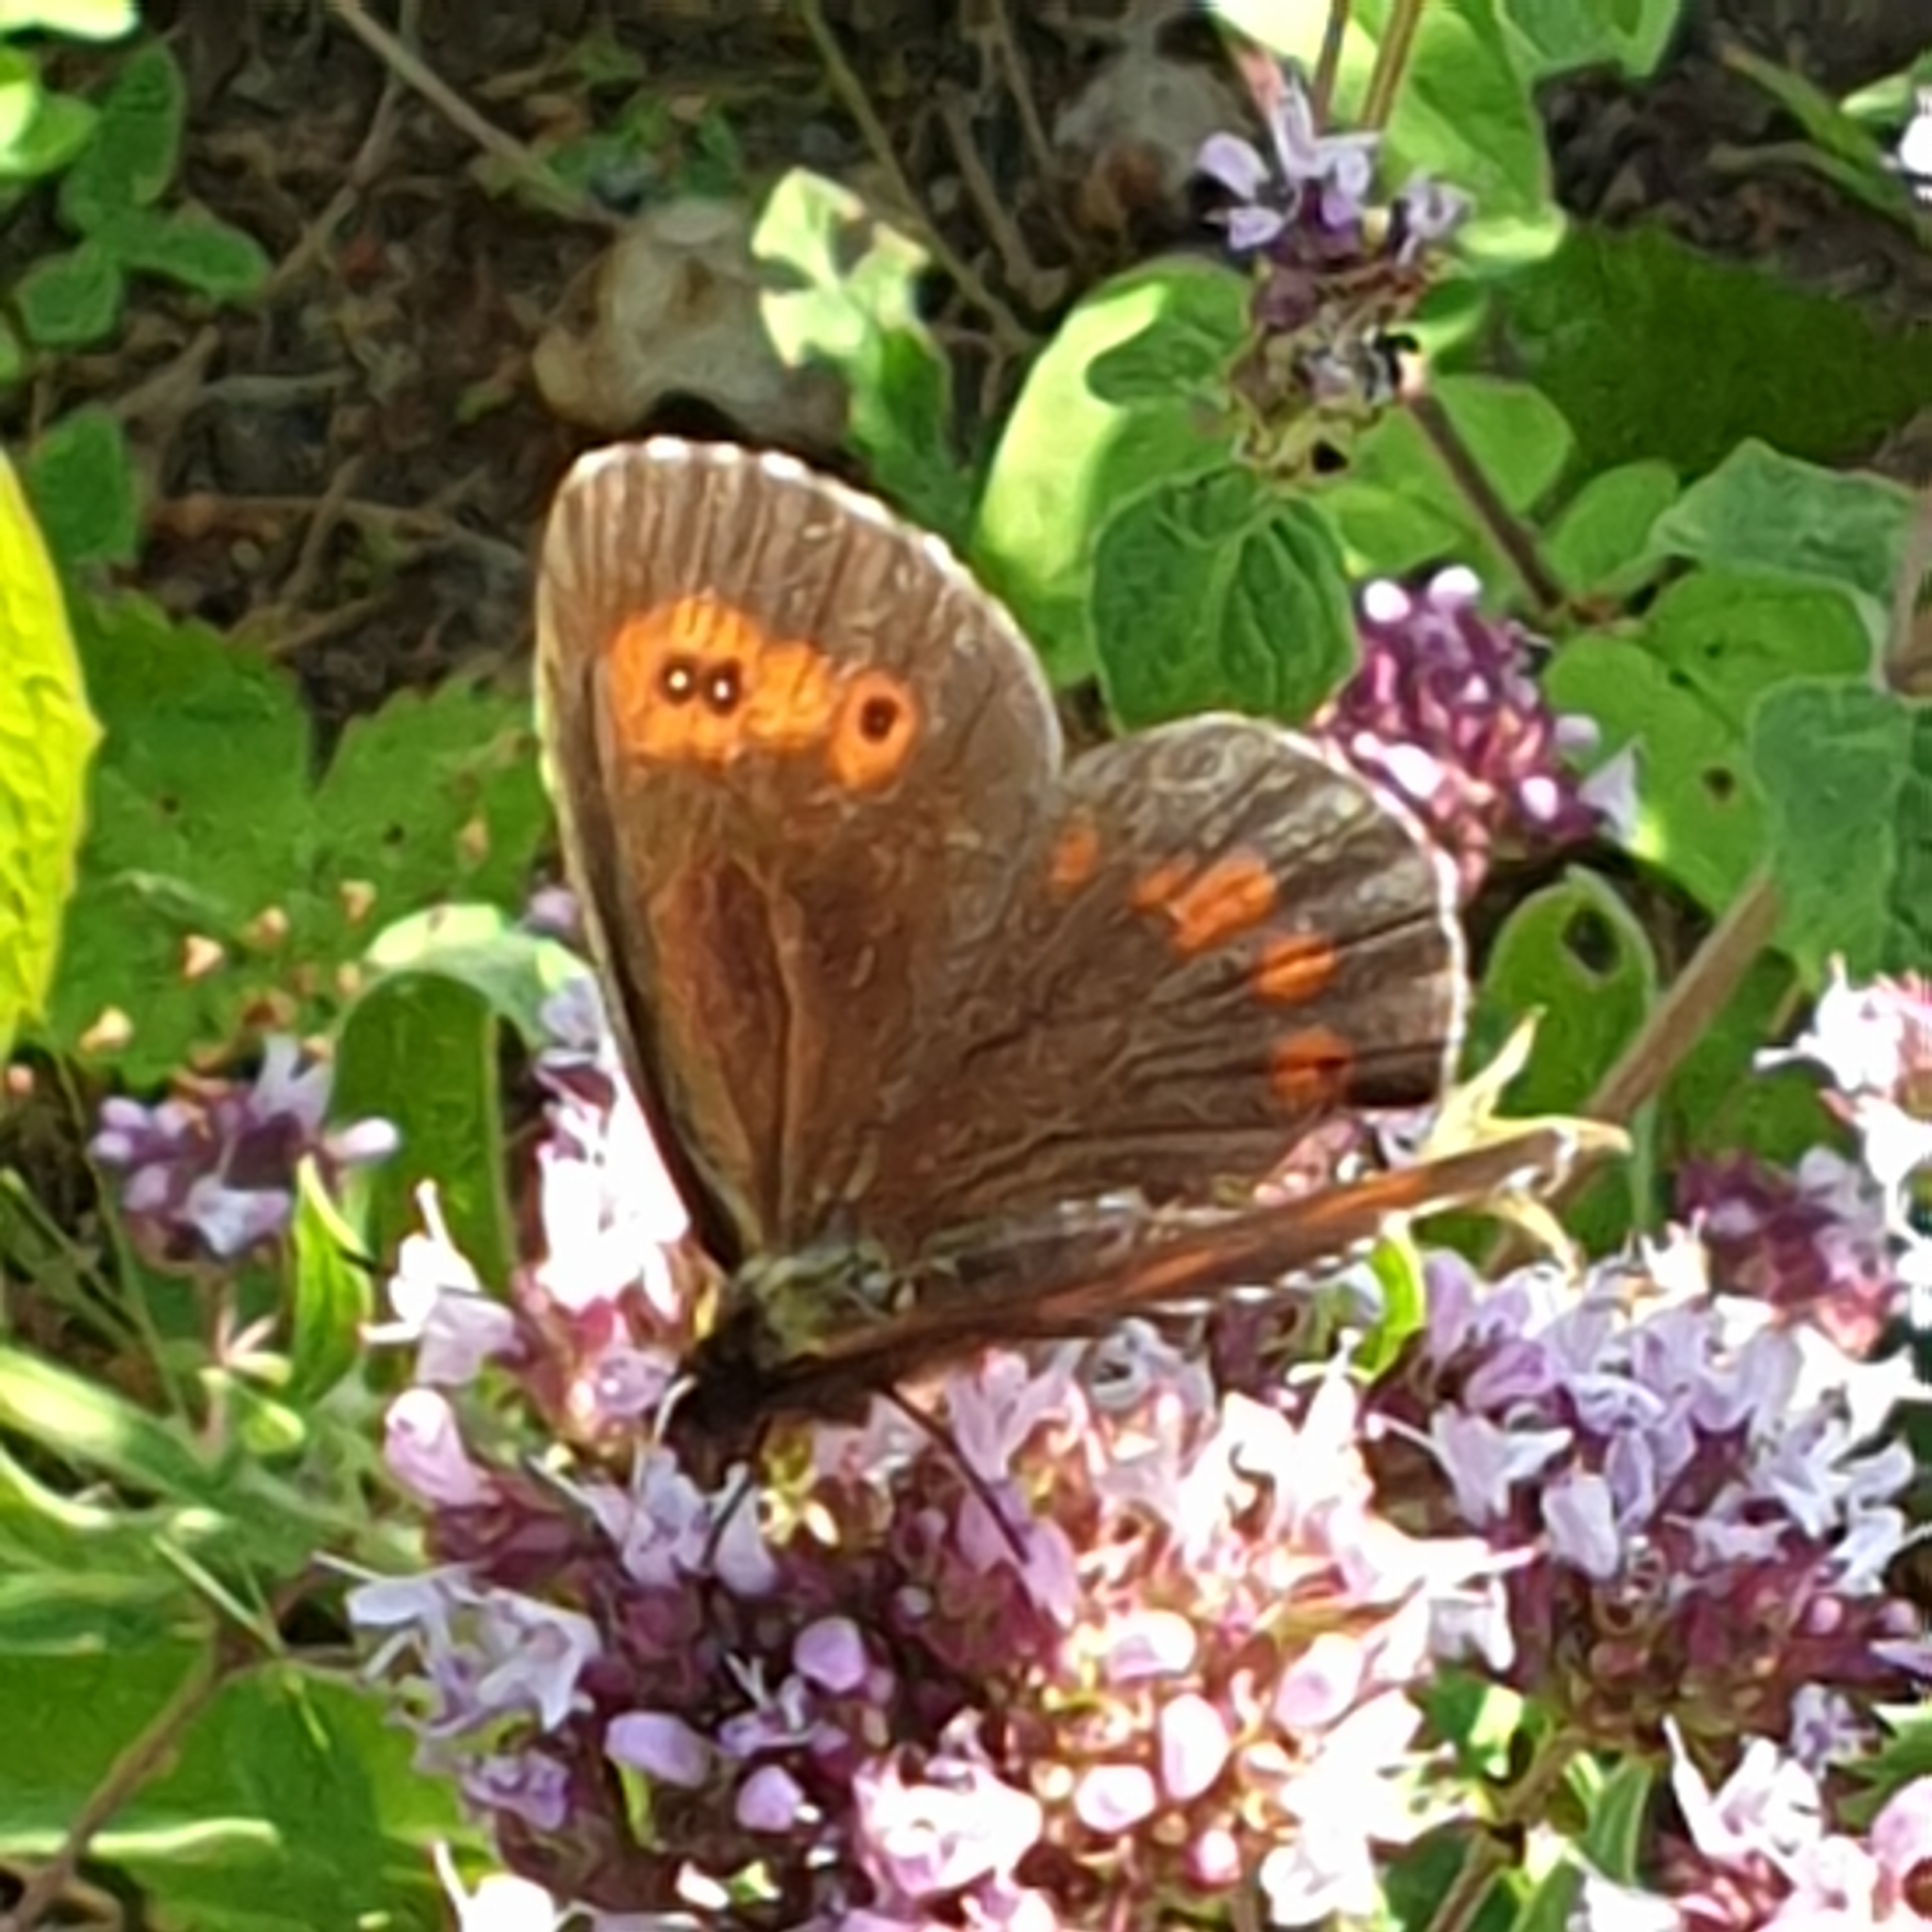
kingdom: Animalia
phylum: Arthropoda
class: Insecta
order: Lepidoptera
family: Nymphalidae
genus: Erebia
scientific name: Erebia ligea
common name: Arran brown
